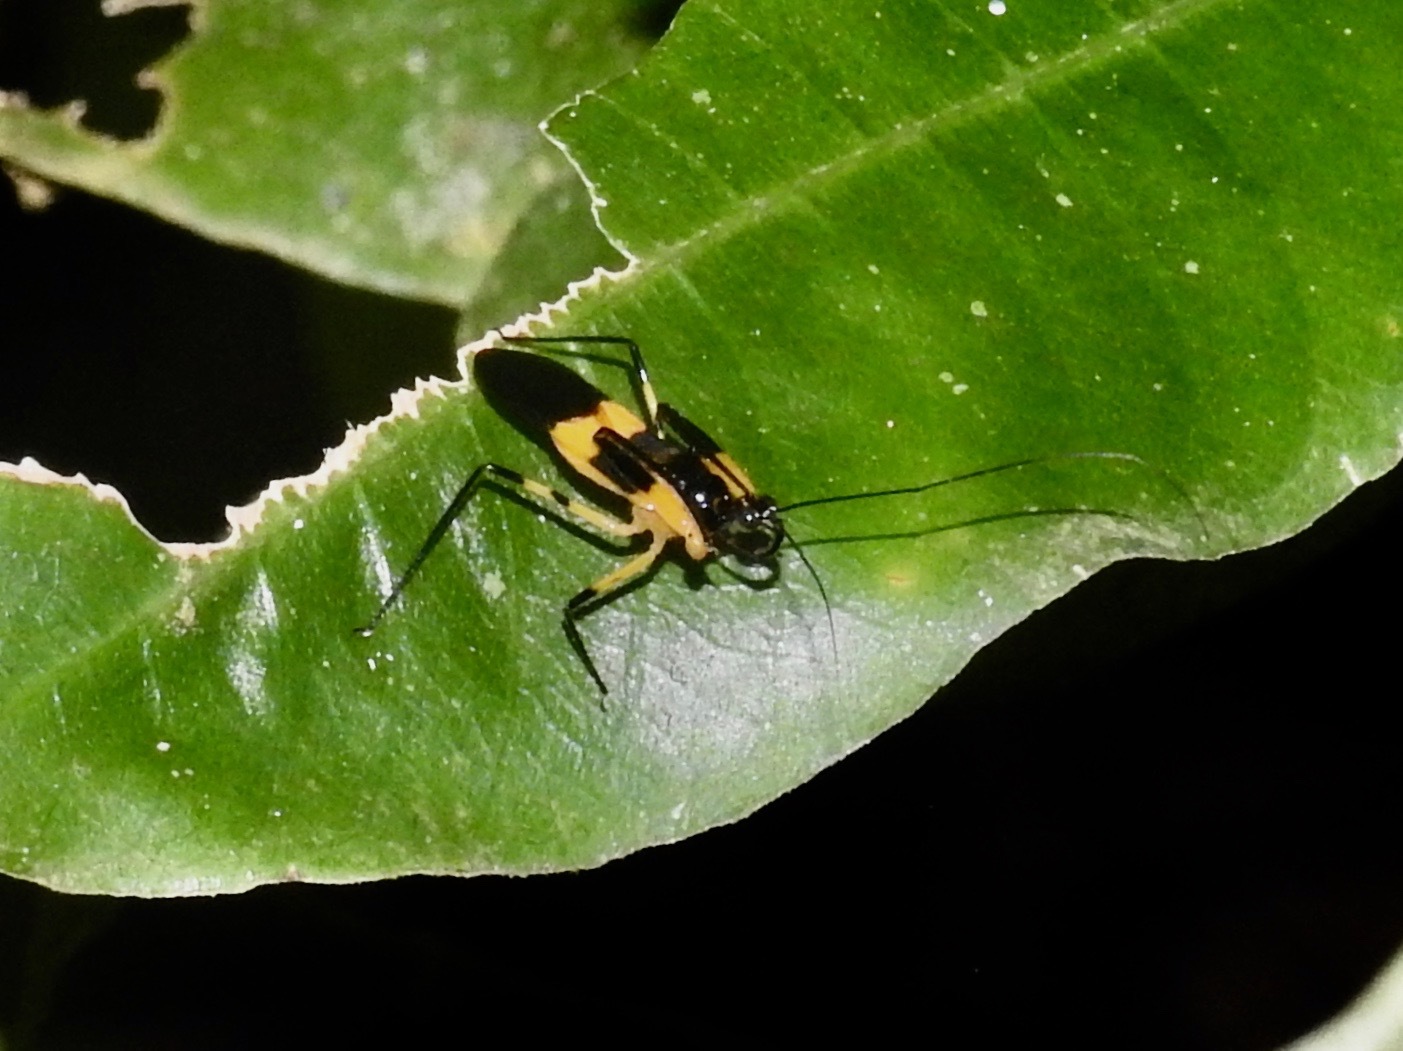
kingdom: Animalia
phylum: Arthropoda
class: Insecta
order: Hemiptera
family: Reduviidae
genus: Acanthischium
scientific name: Acanthischium
